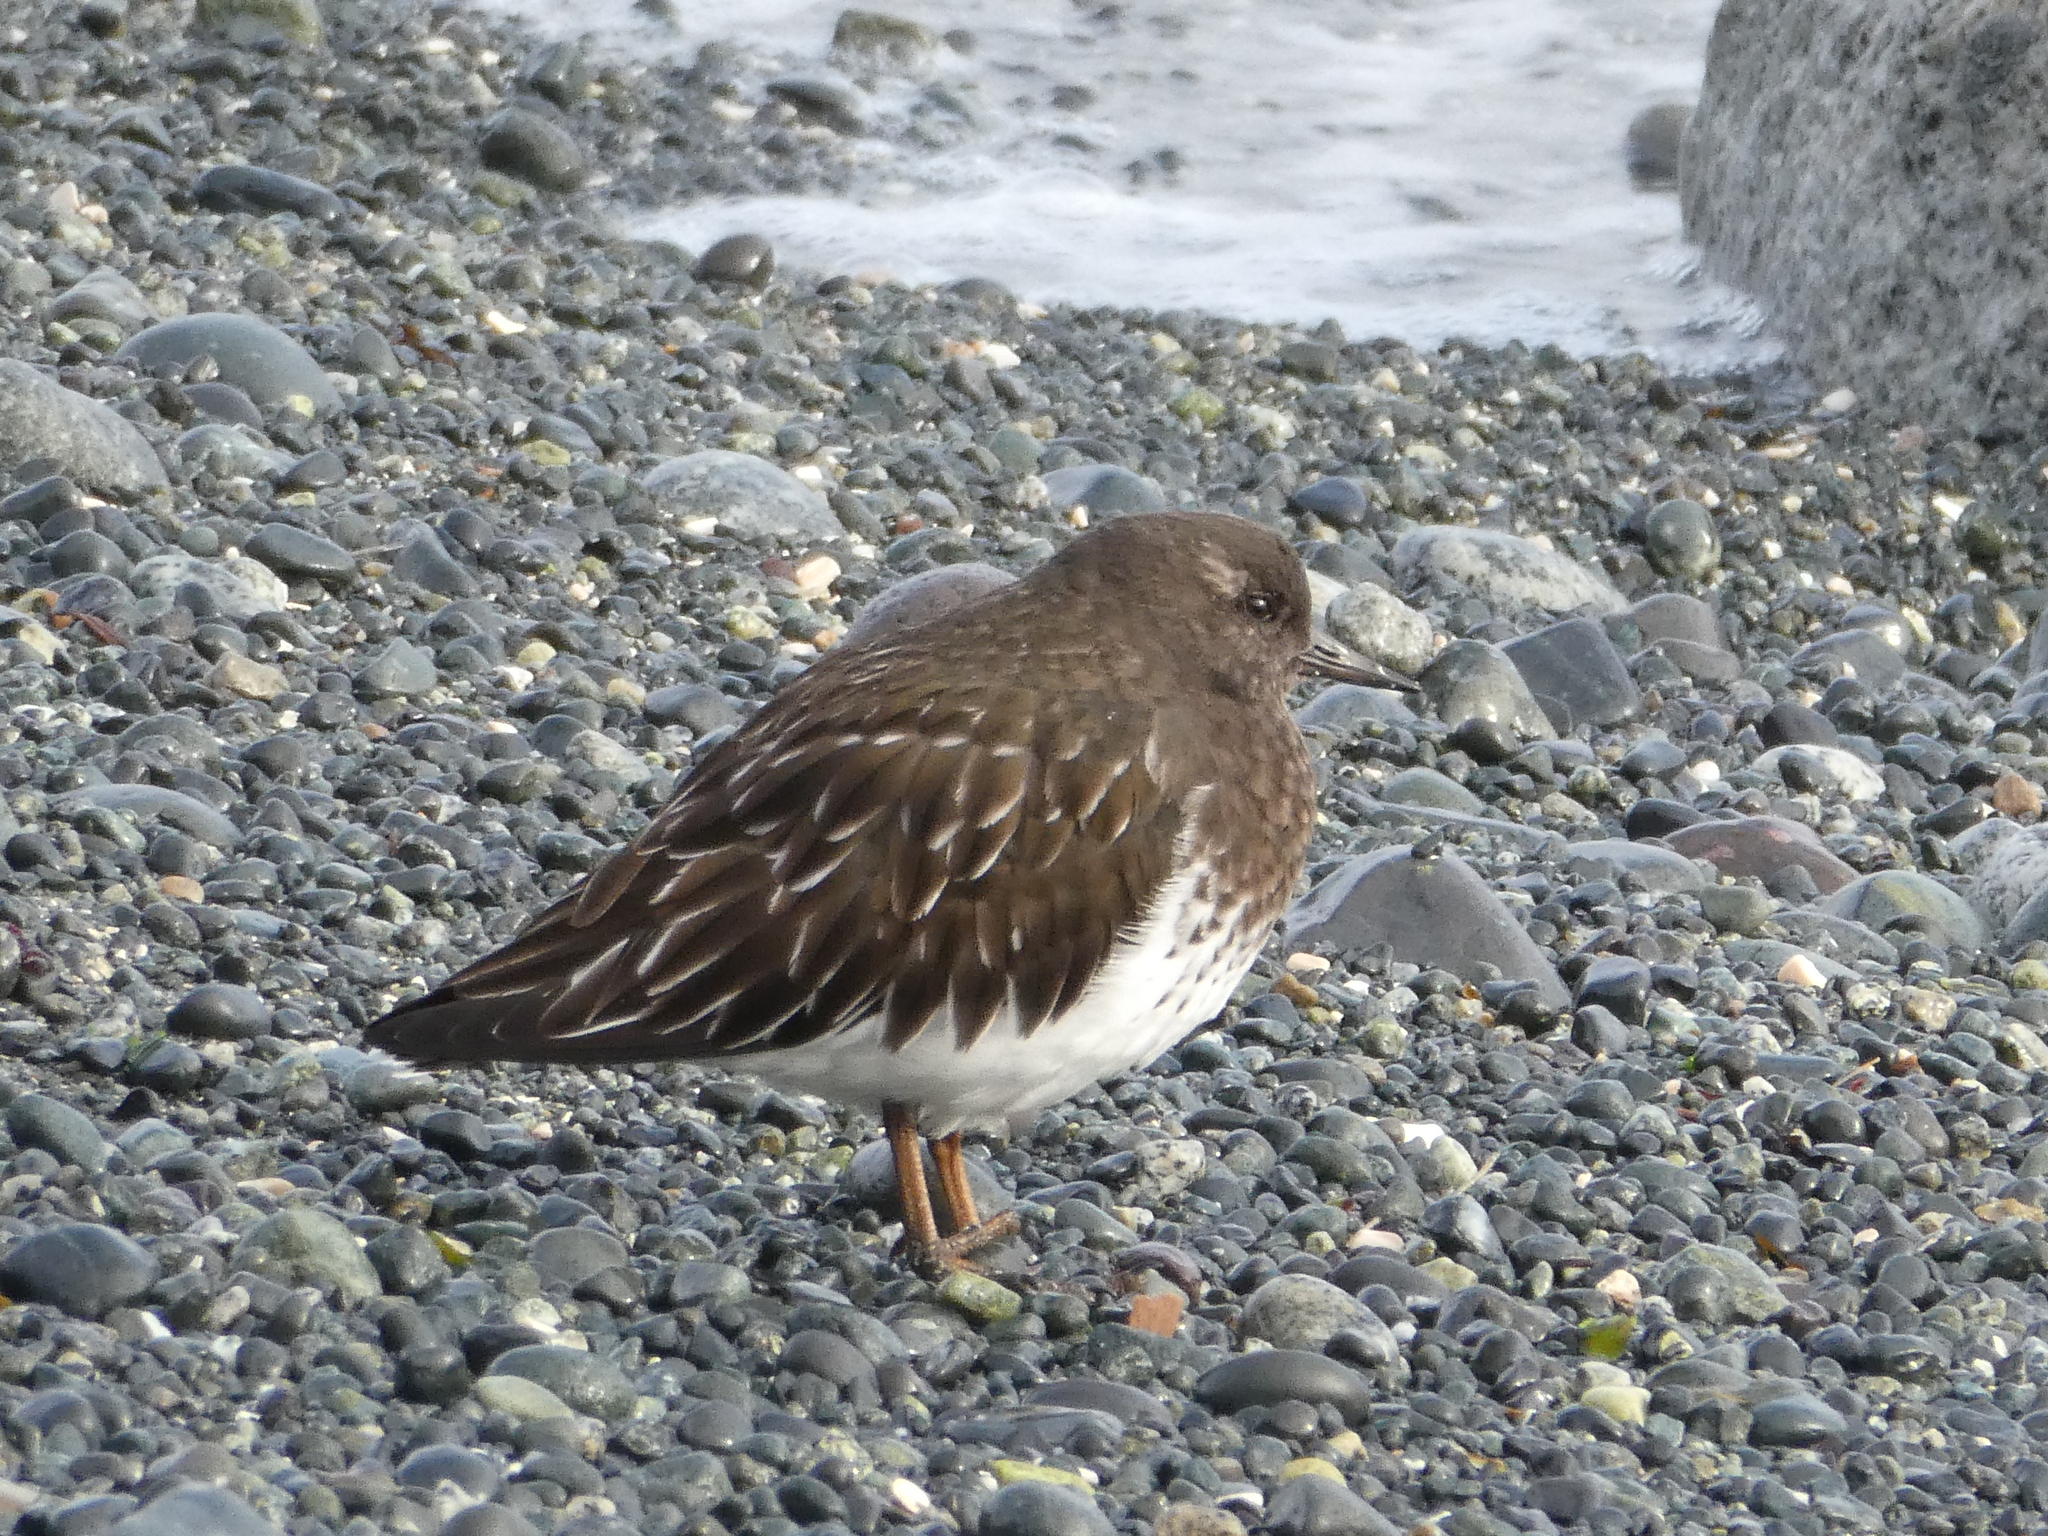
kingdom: Animalia
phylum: Chordata
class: Aves
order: Charadriiformes
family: Scolopacidae
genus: Arenaria
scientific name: Arenaria melanocephala
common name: Black turnstone
